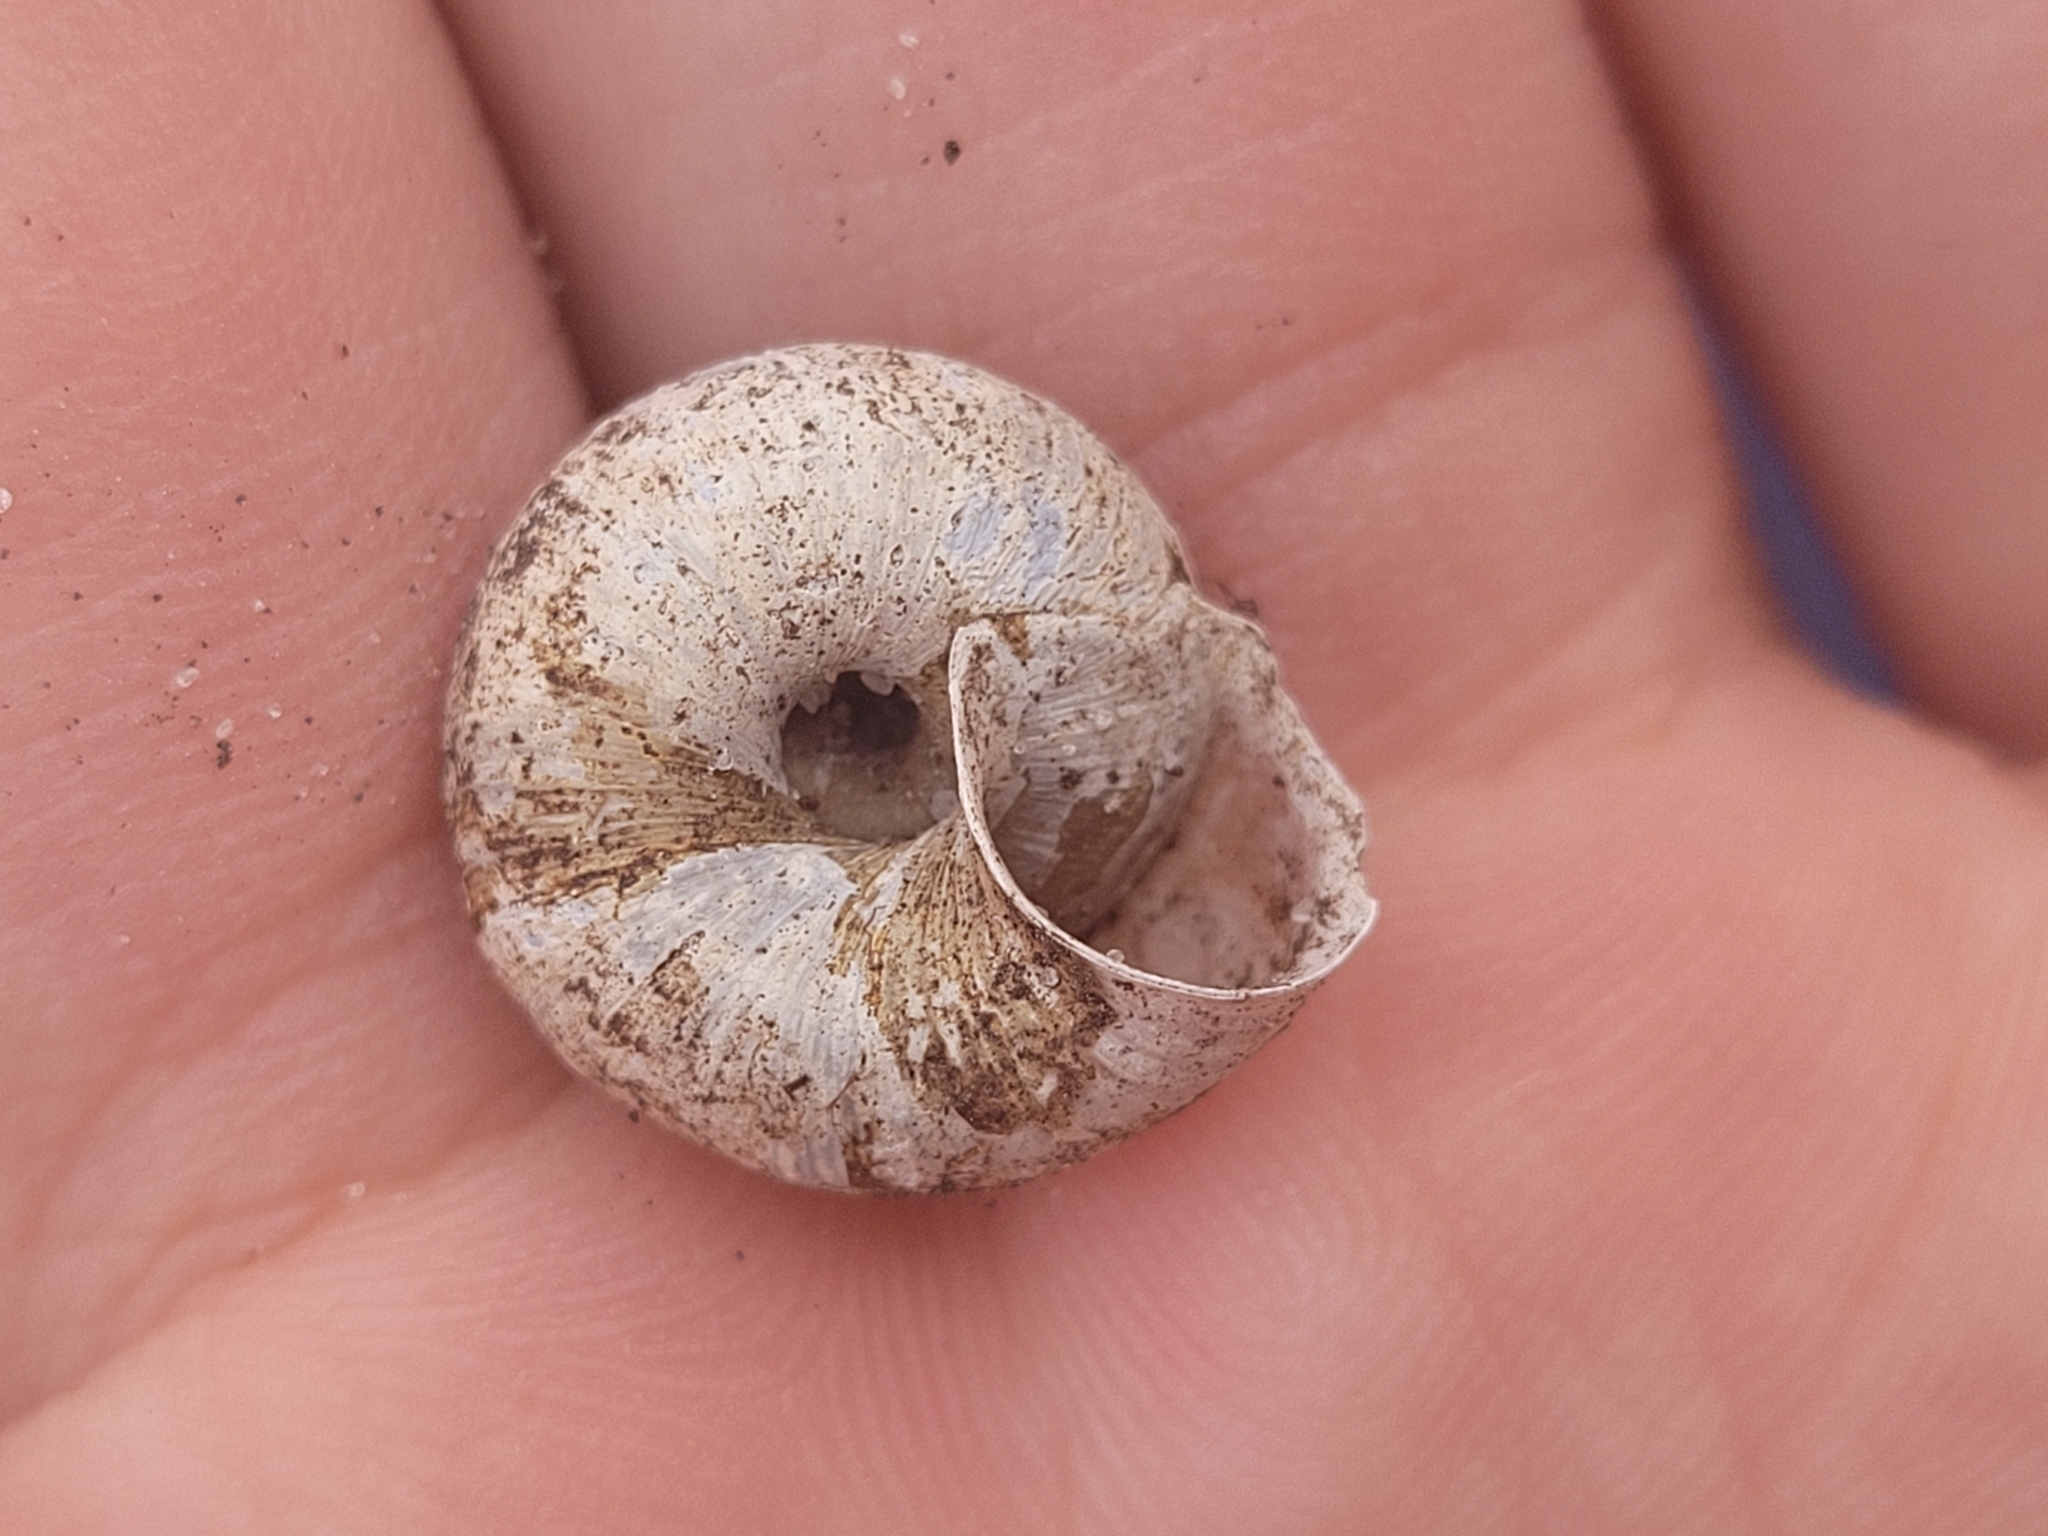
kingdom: Animalia
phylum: Mollusca
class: Gastropoda
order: Stylommatophora
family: Hygromiidae
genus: Euomphalia
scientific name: Euomphalia strigella
